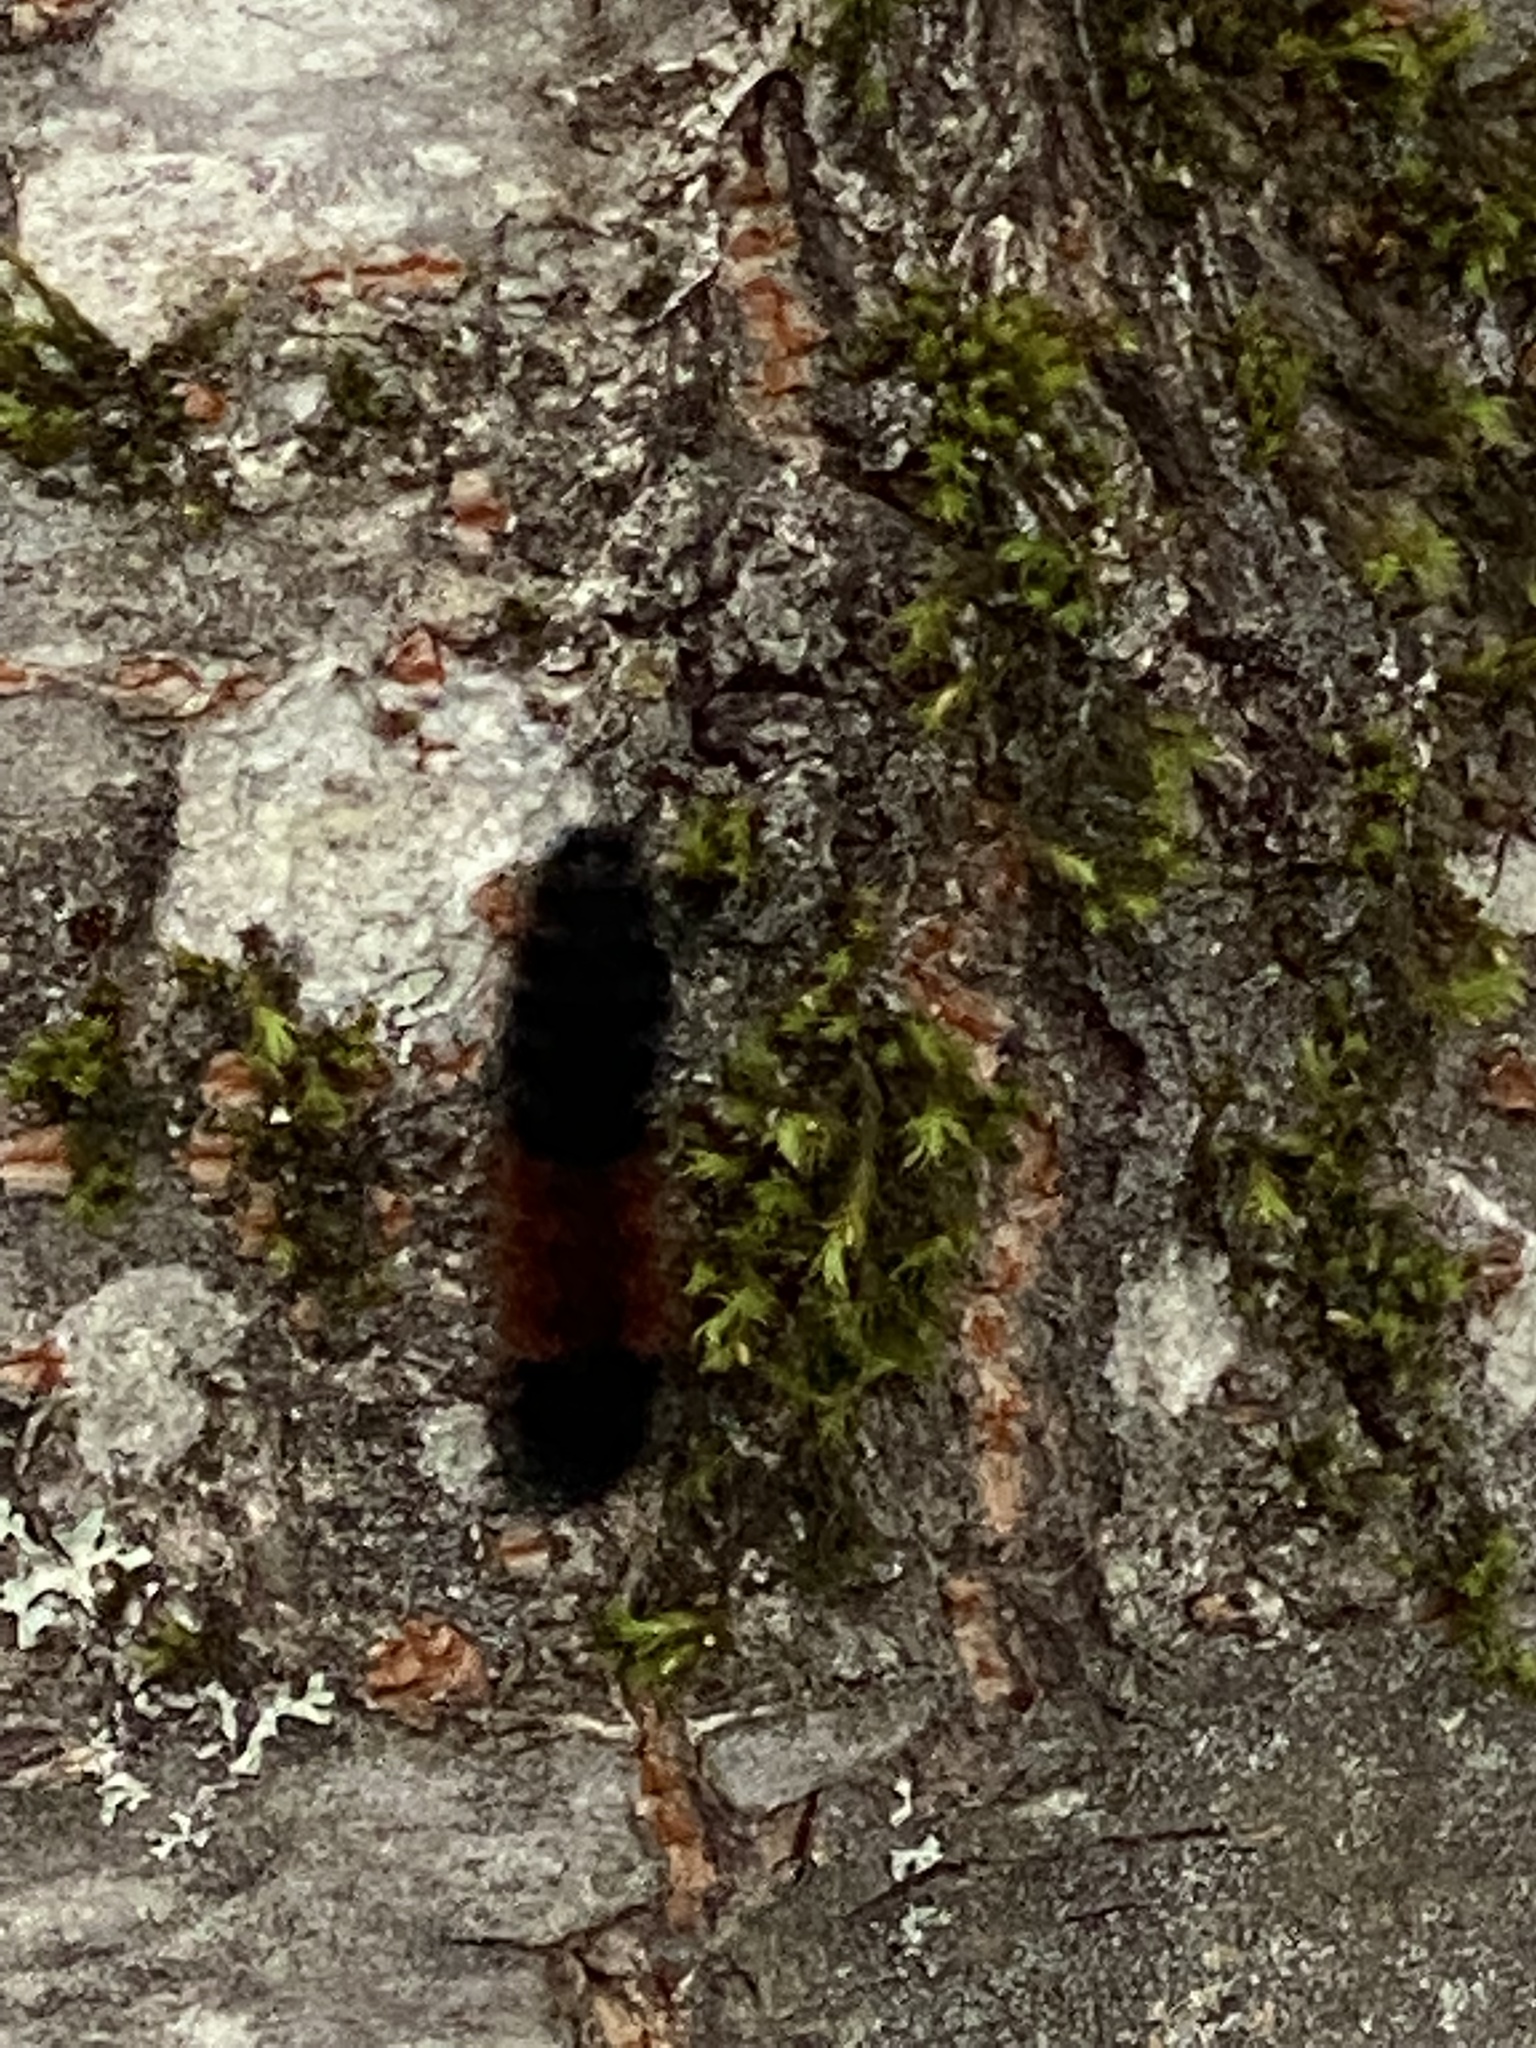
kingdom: Animalia
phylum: Arthropoda
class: Insecta
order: Lepidoptera
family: Erebidae
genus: Pyrrharctia
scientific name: Pyrrharctia isabella
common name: Isabella tiger moth
